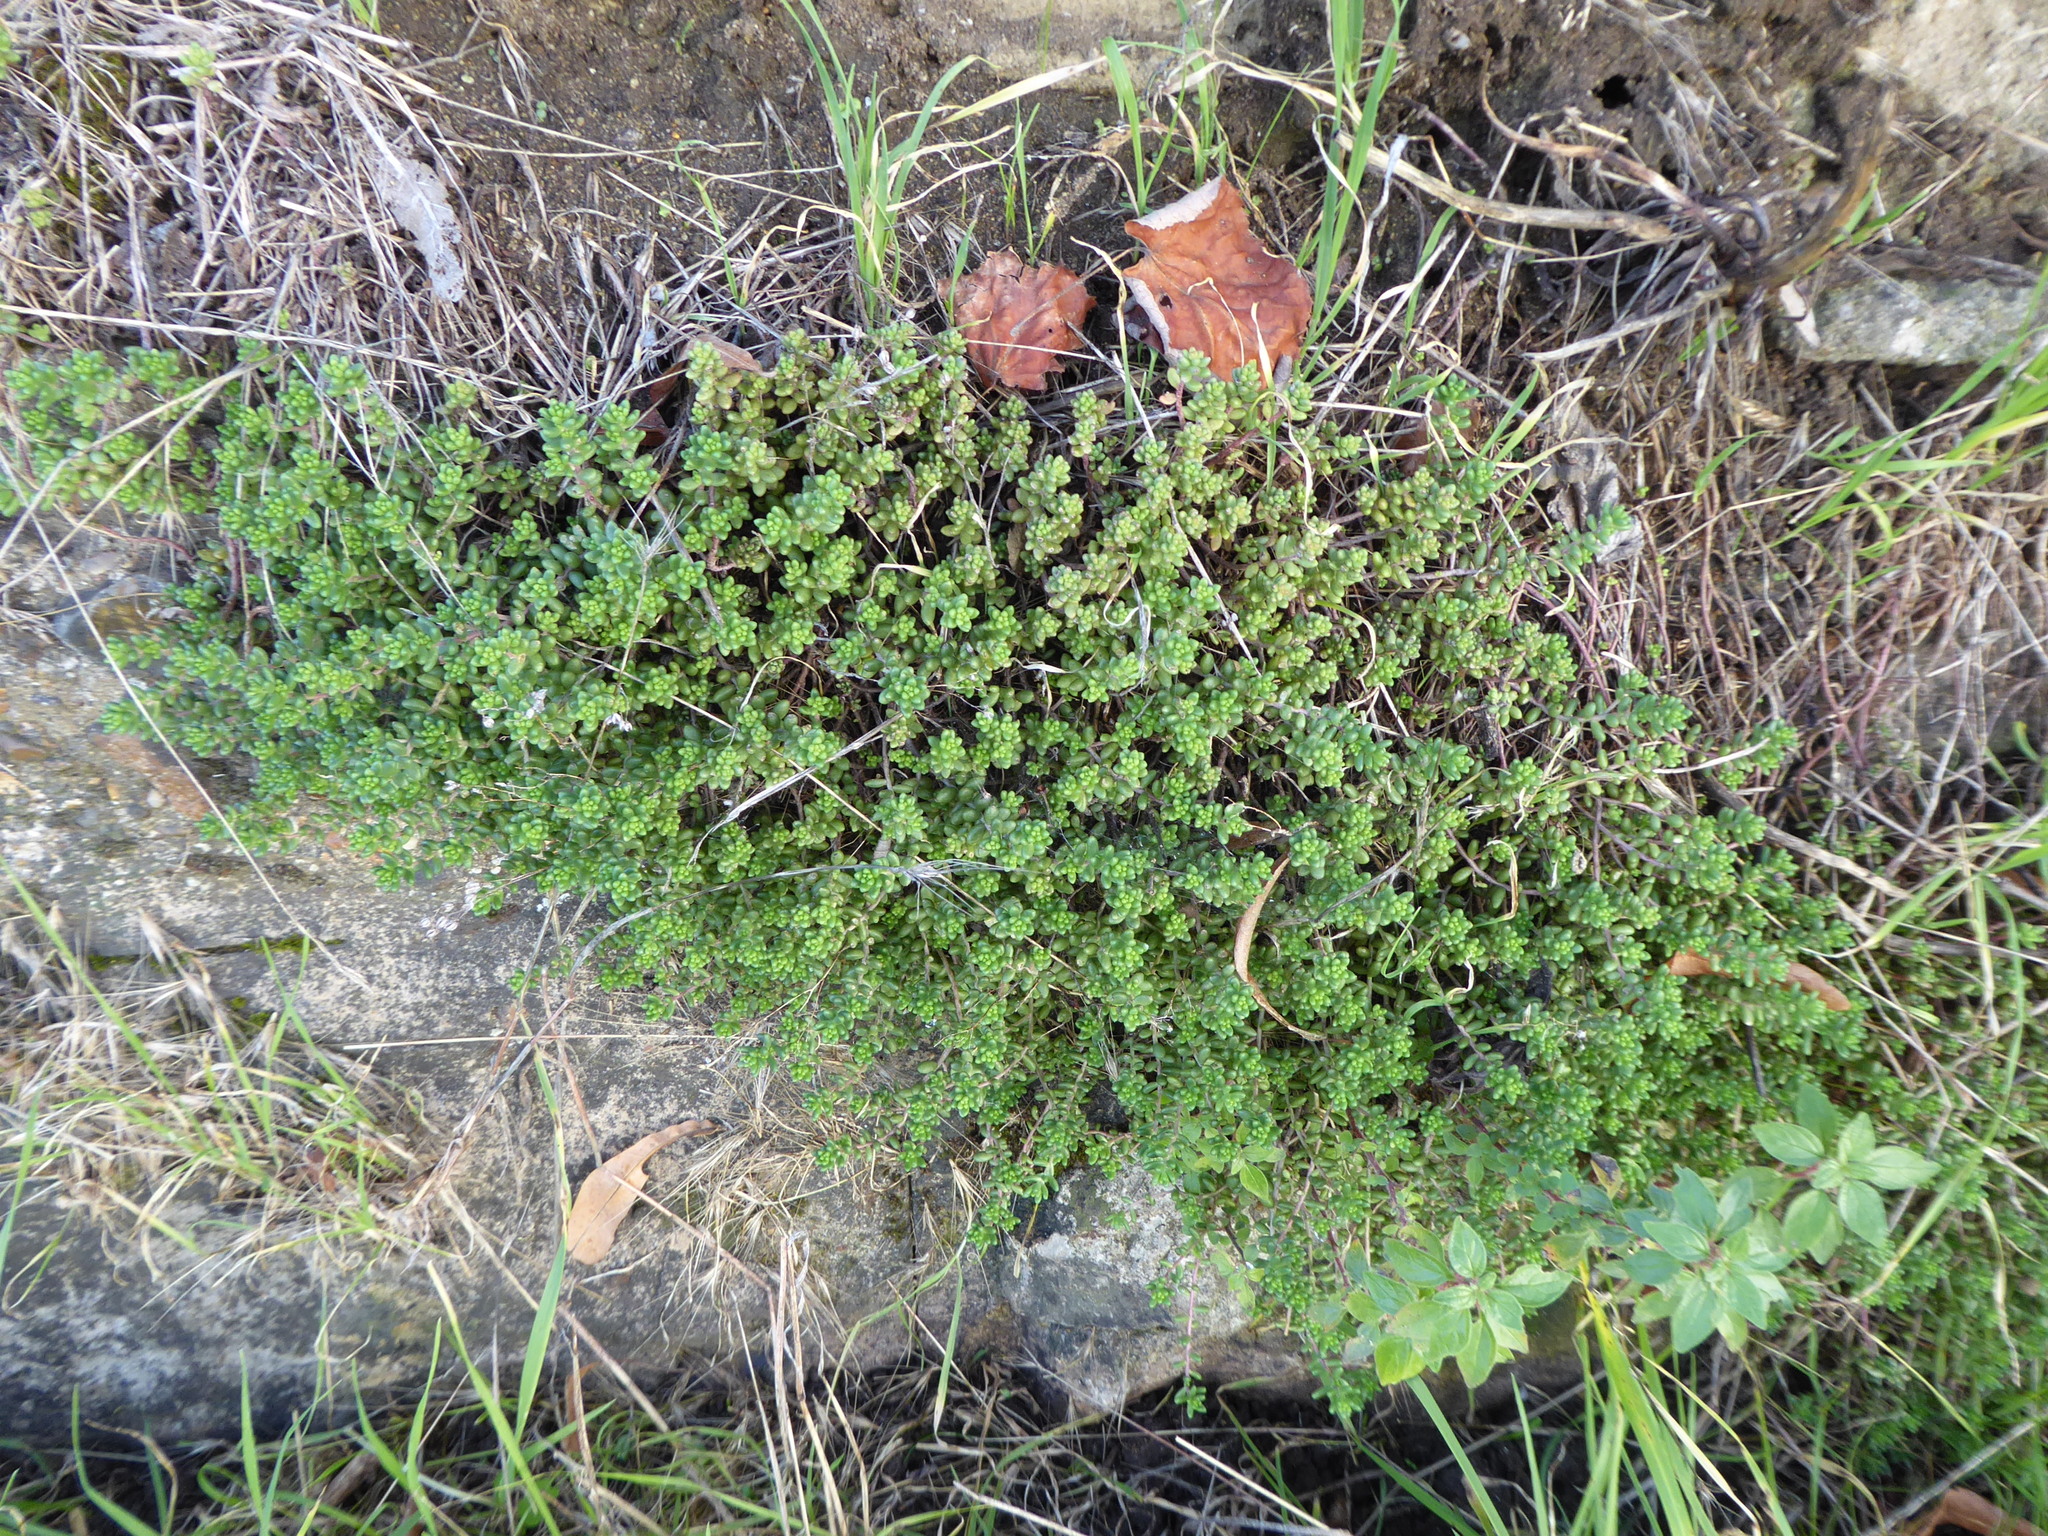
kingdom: Plantae
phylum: Tracheophyta
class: Magnoliopsida
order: Saxifragales
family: Crassulaceae
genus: Sedum
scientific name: Sedum album
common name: White stonecrop
